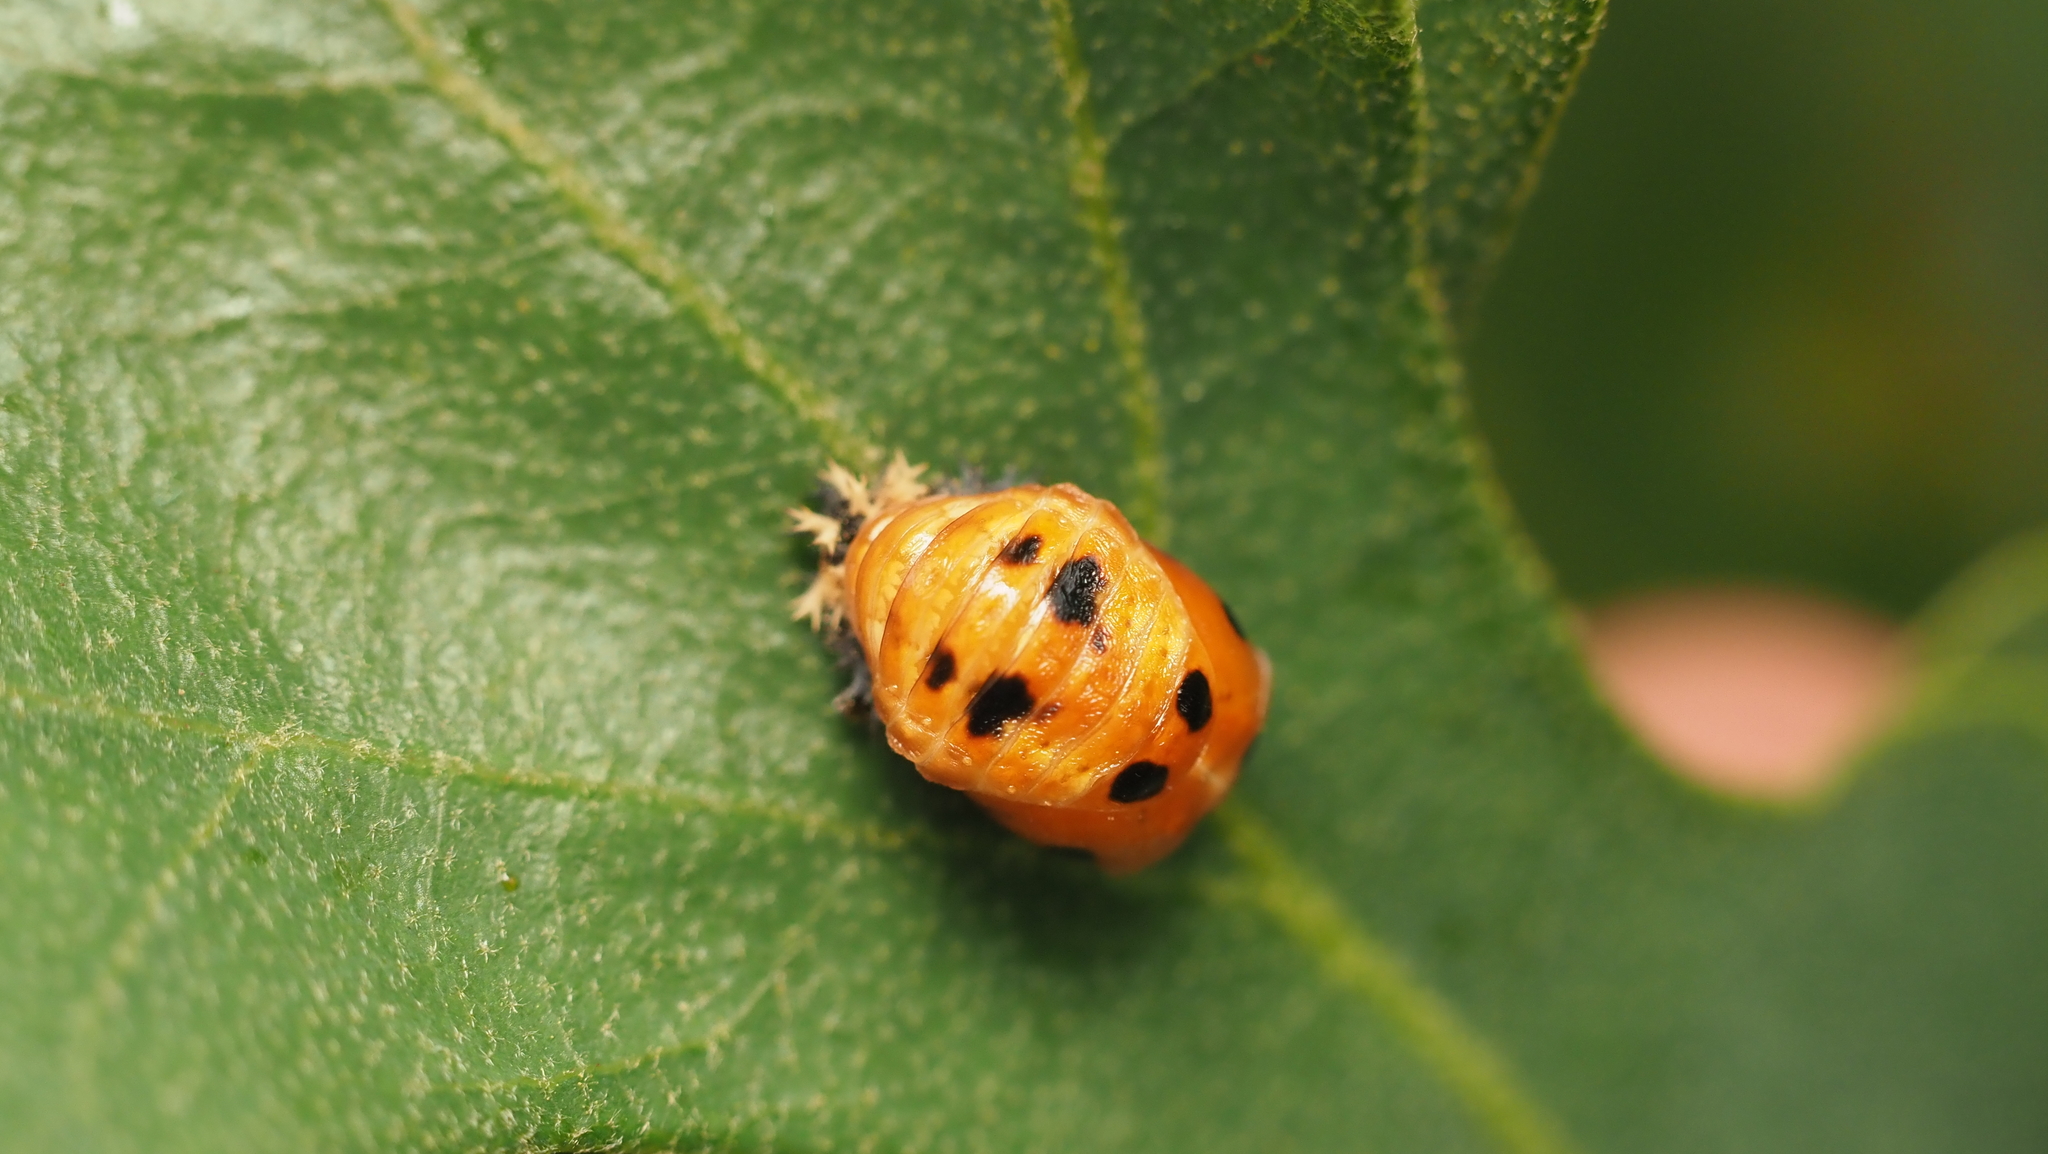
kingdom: Animalia
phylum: Arthropoda
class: Insecta
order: Coleoptera
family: Coccinellidae
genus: Harmonia
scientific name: Harmonia axyridis
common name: Harlequin ladybird
